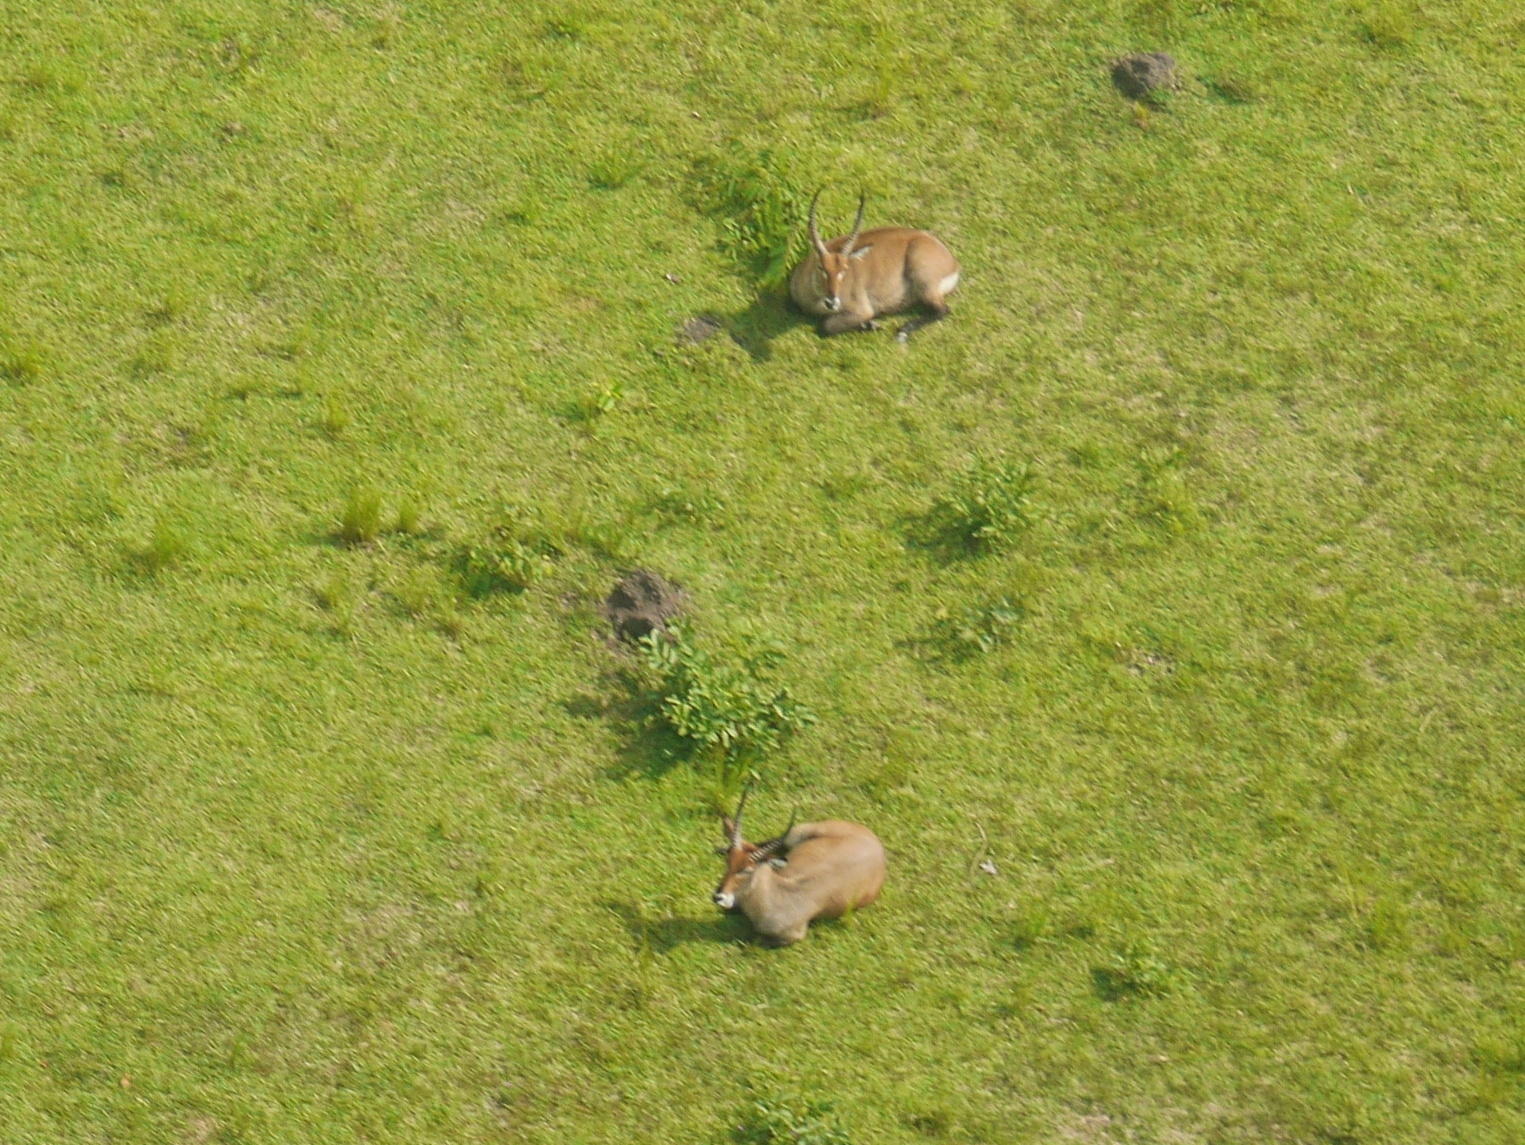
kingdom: Animalia
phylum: Chordata
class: Mammalia
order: Artiodactyla
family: Bovidae
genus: Kobus
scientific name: Kobus ellipsiprymnus
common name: Waterbuck
